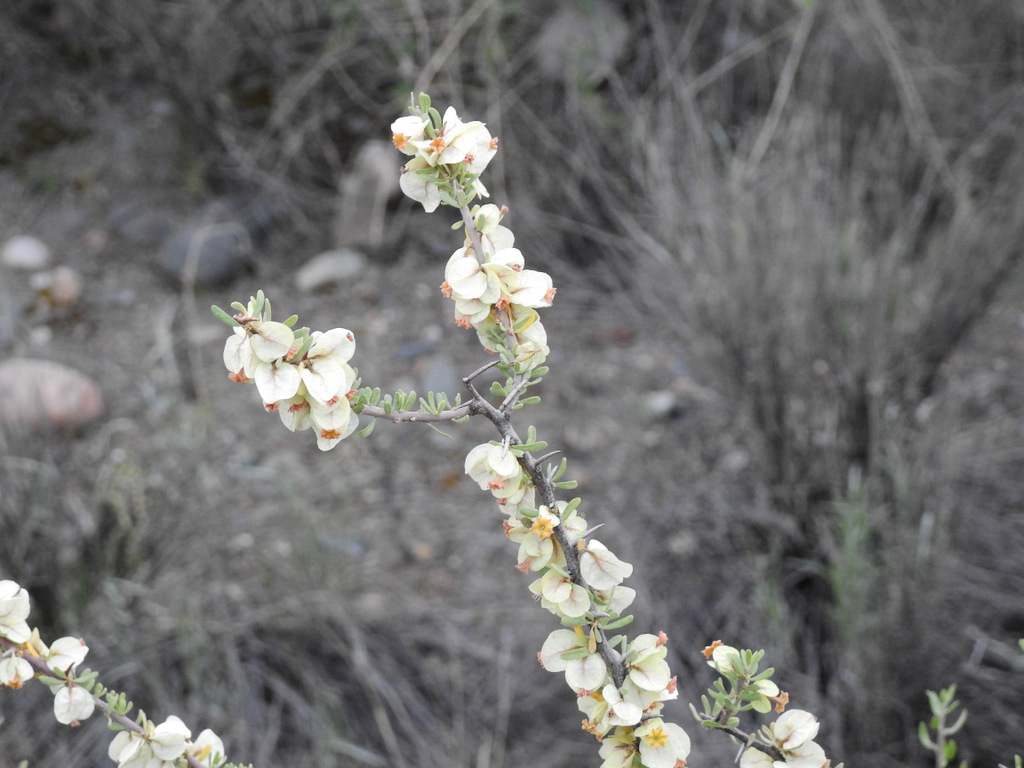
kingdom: Plantae
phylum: Tracheophyta
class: Magnoliopsida
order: Caryophyllales
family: Nyctaginaceae
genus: Bougainvillea
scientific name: Bougainvillea spinosa
